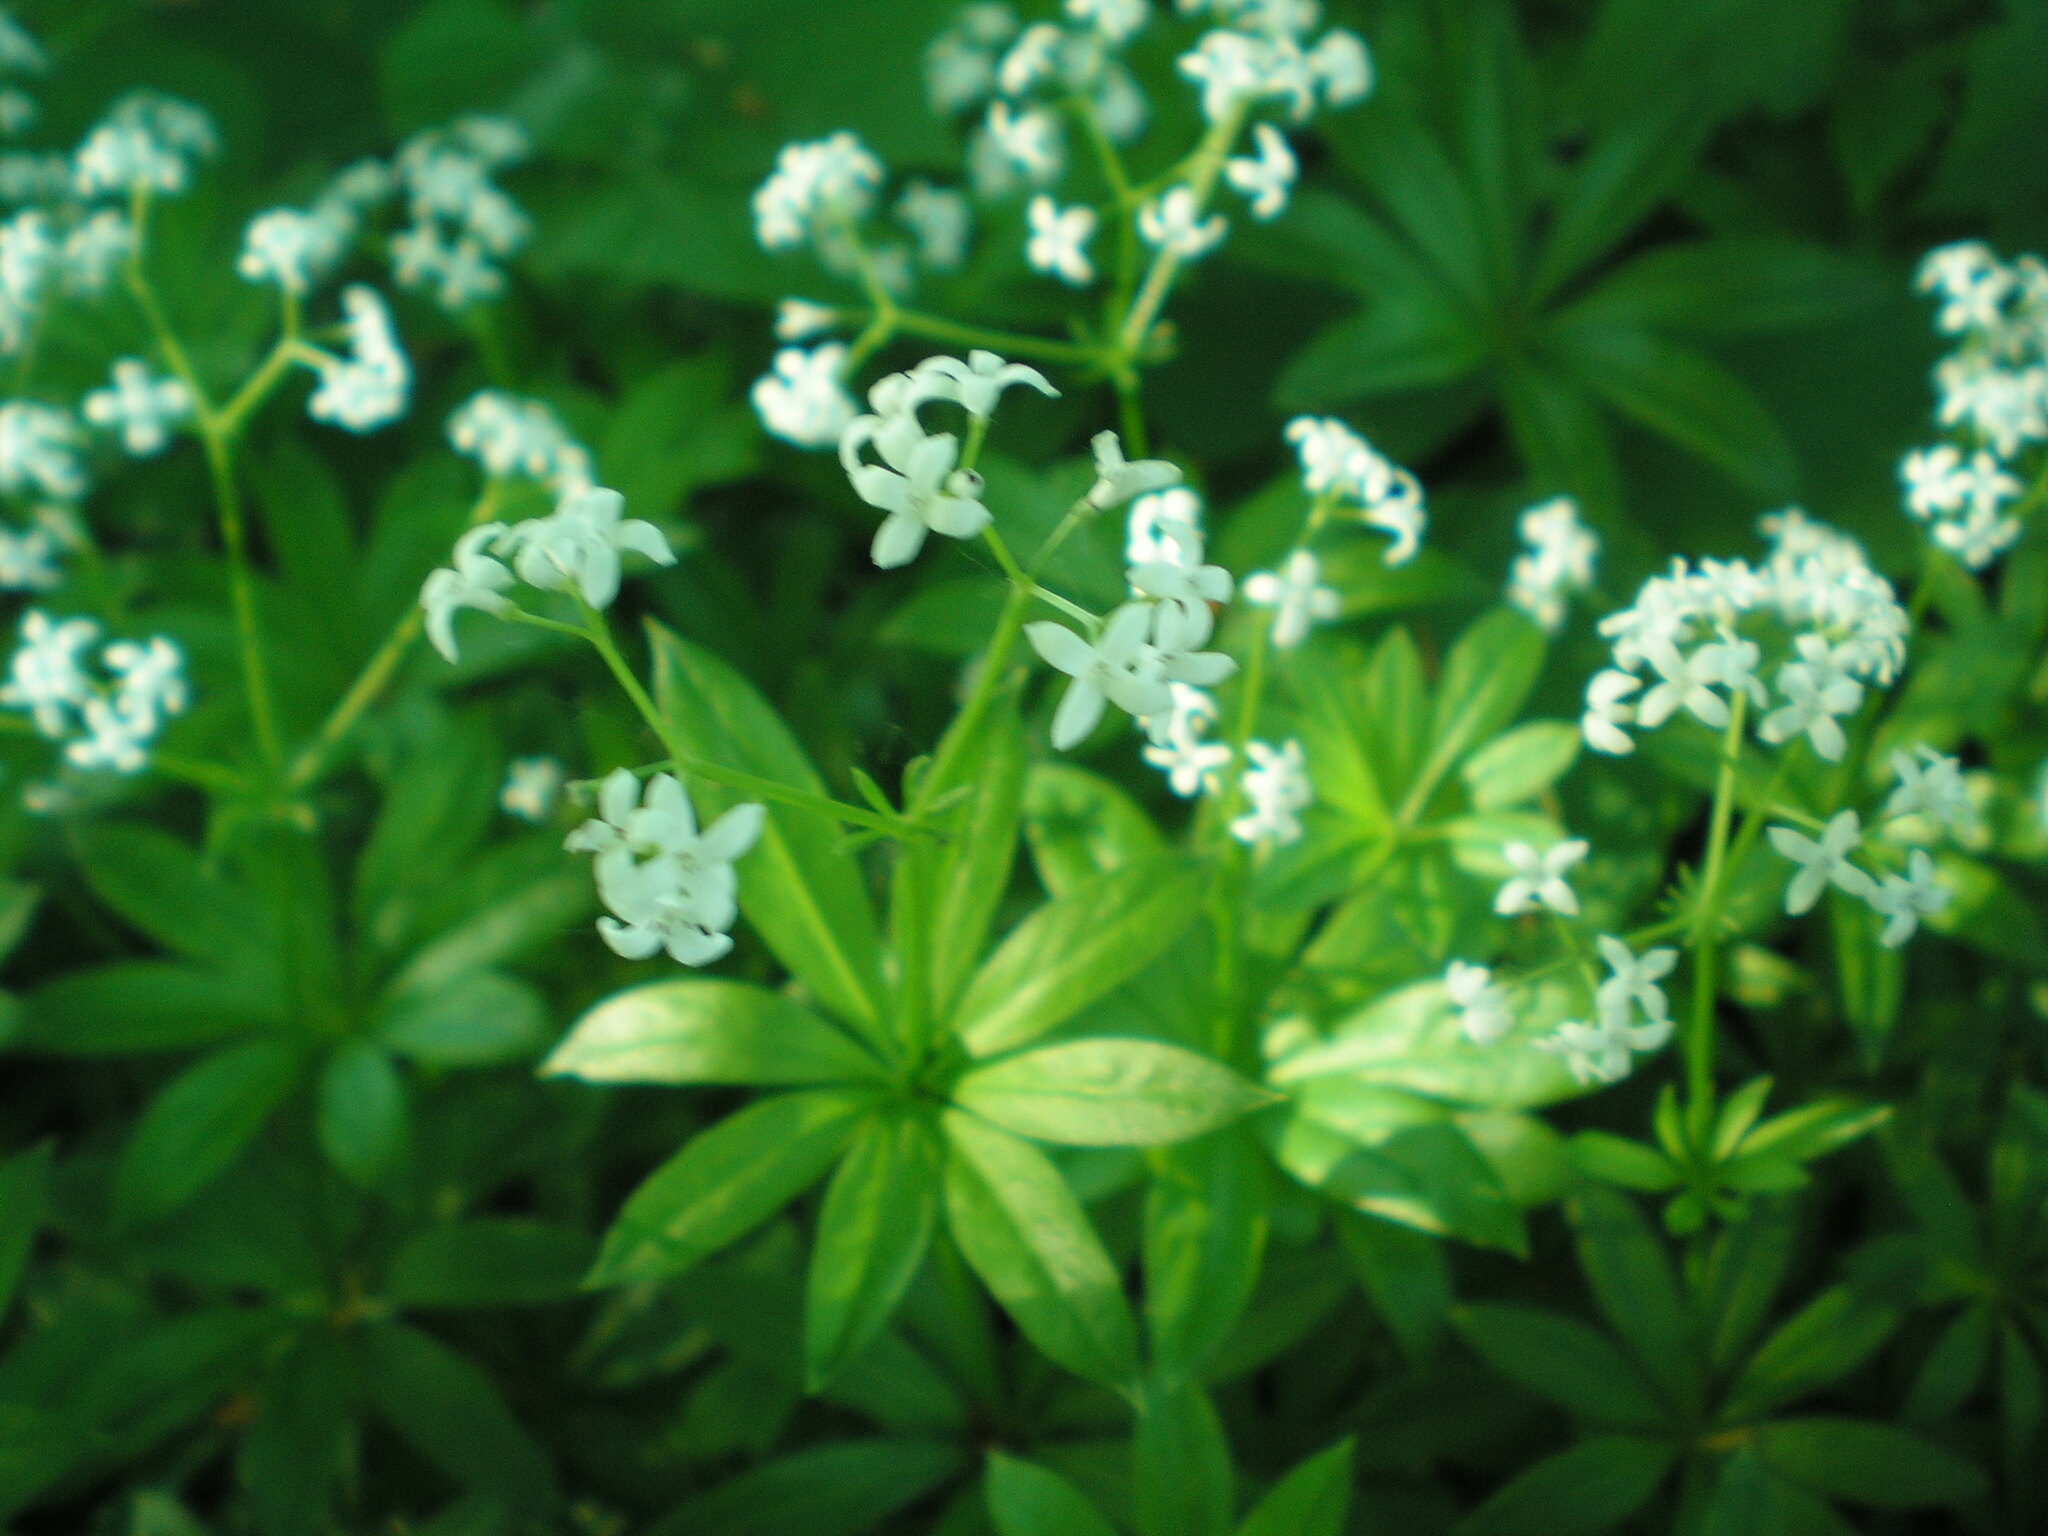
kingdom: Plantae
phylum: Tracheophyta
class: Magnoliopsida
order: Gentianales
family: Rubiaceae
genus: Galium
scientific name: Galium odoratum
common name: Sweet woodruff
